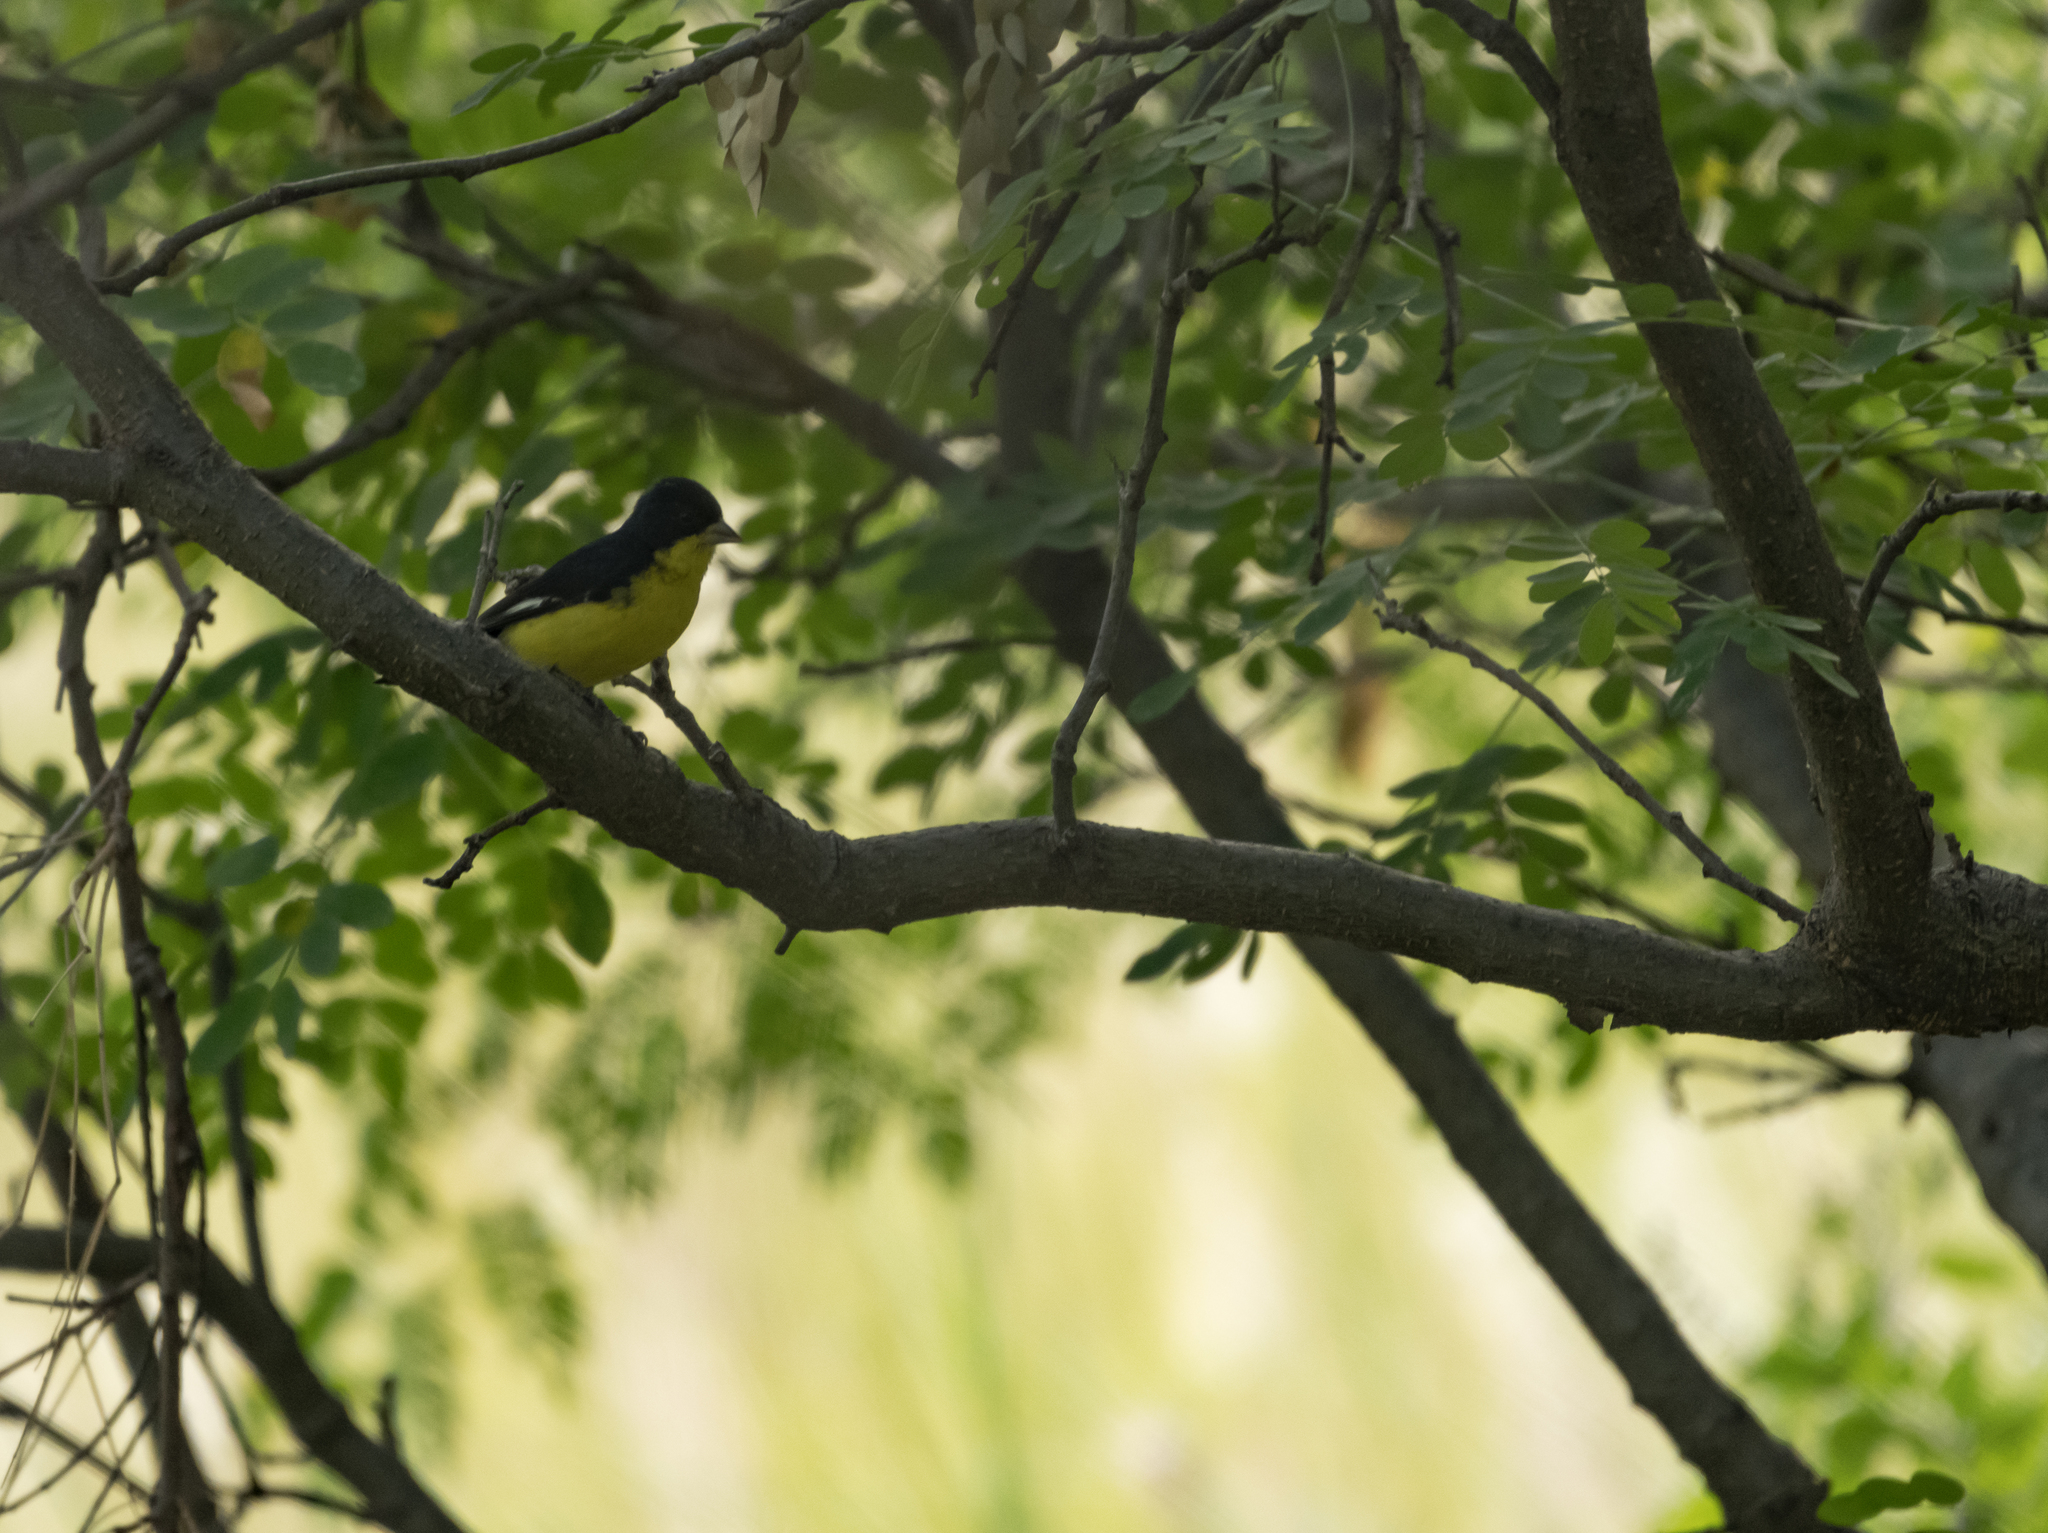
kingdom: Animalia
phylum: Chordata
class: Aves
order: Passeriformes
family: Fringillidae
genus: Spinus
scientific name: Spinus psaltria
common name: Lesser goldfinch
